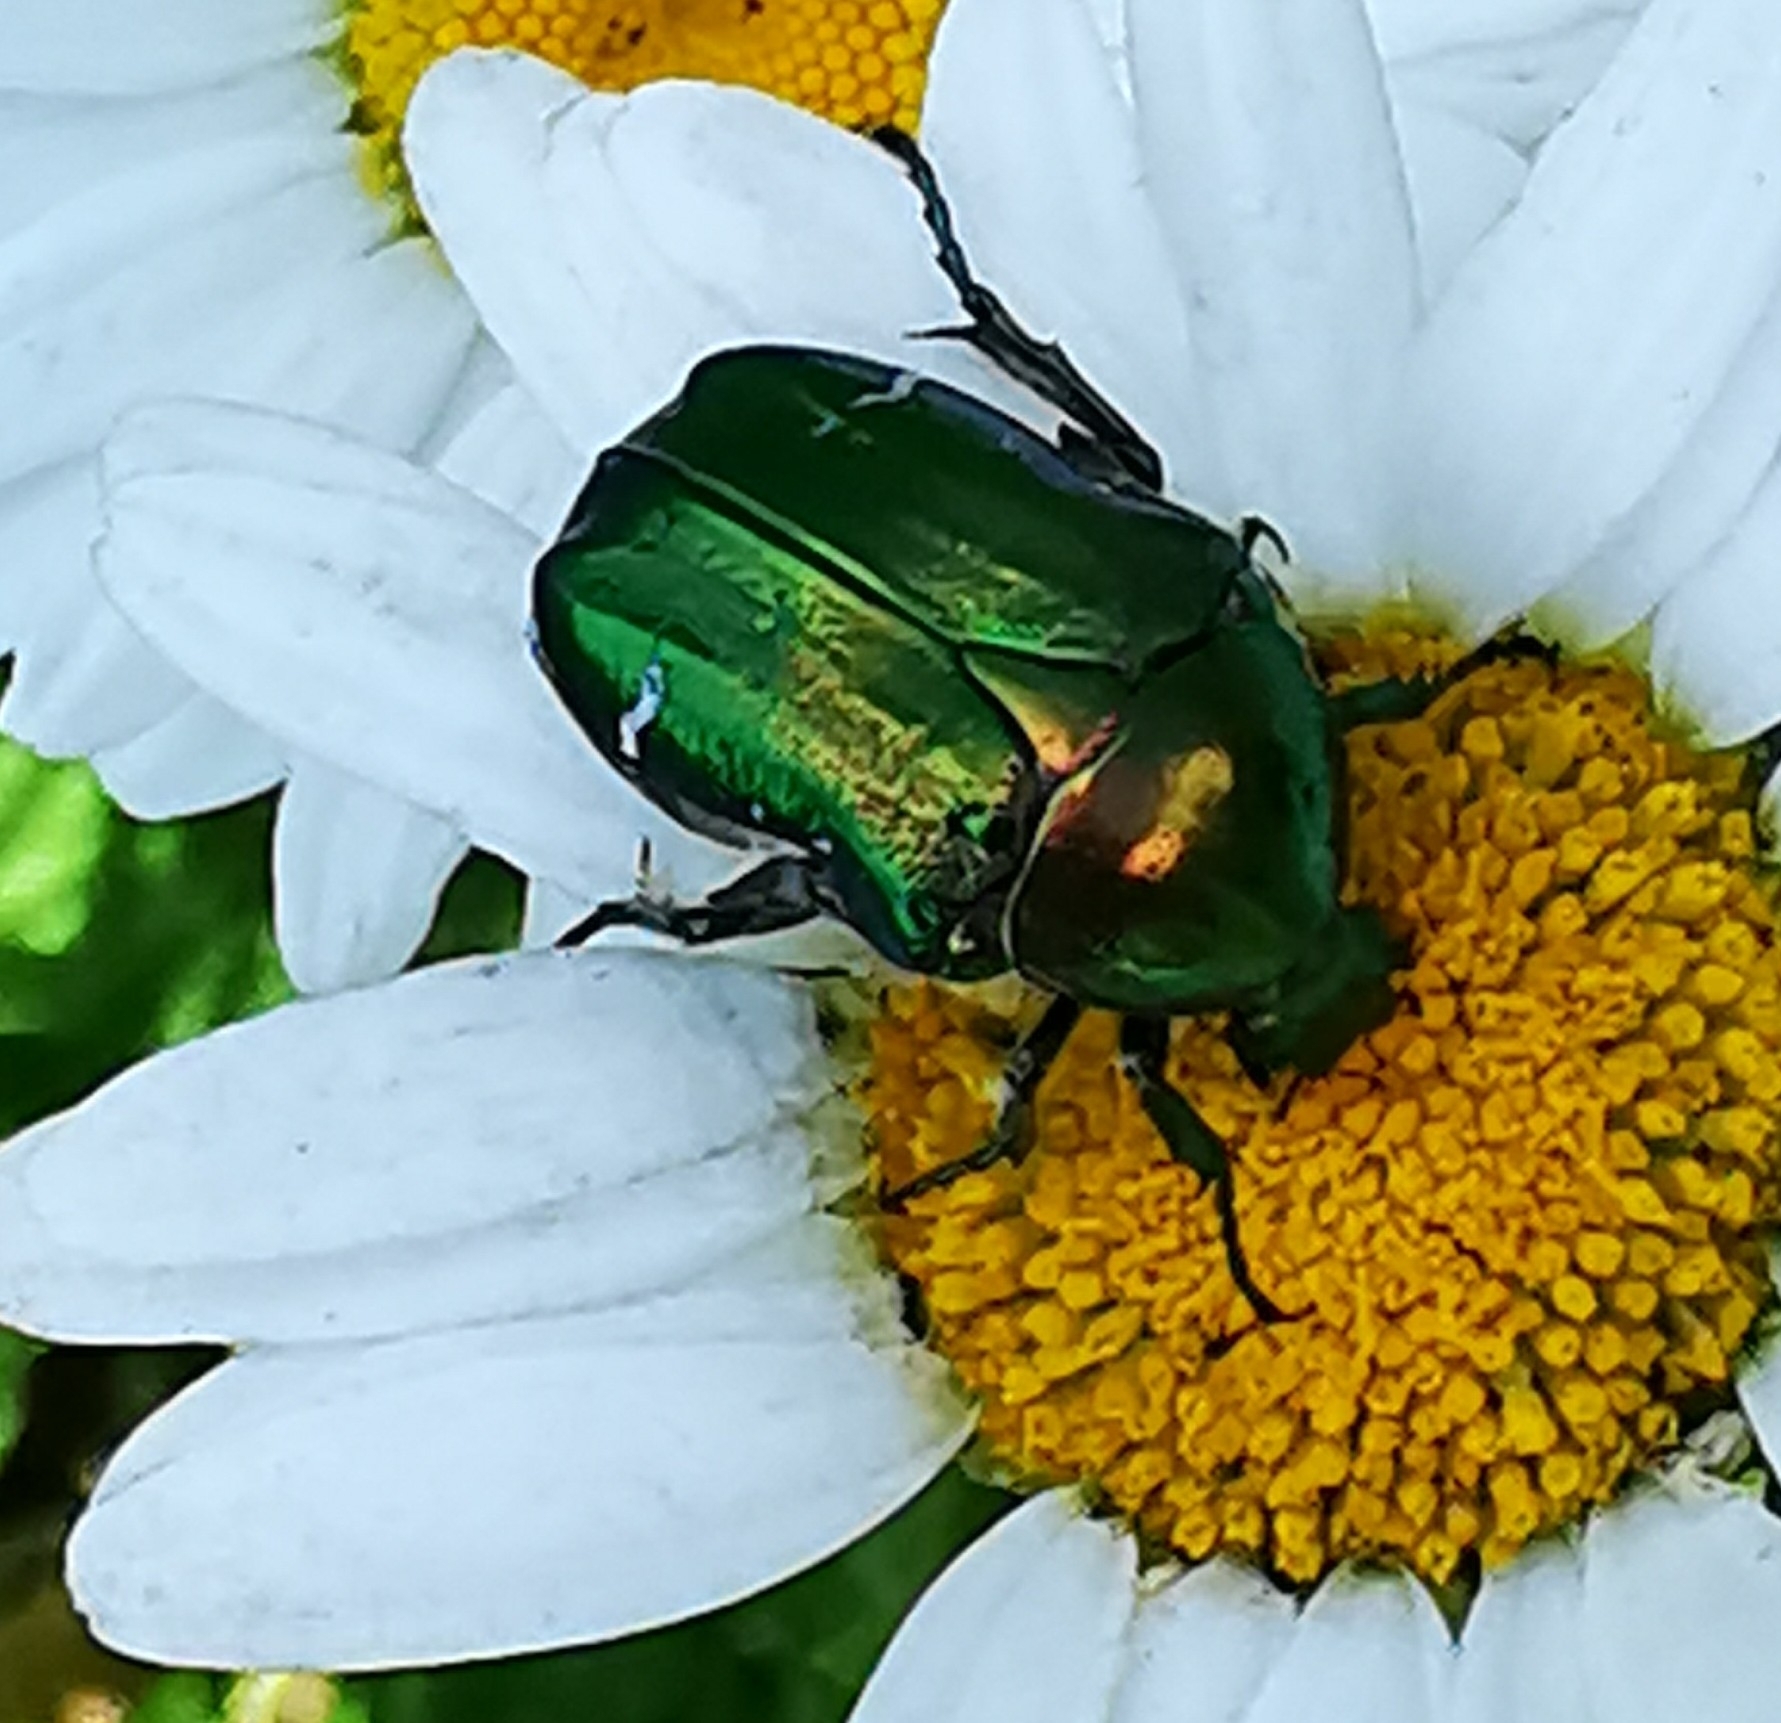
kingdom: Animalia
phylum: Arthropoda
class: Insecta
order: Coleoptera
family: Scarabaeidae
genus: Cetonia
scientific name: Cetonia aurata
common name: Rose chafer
